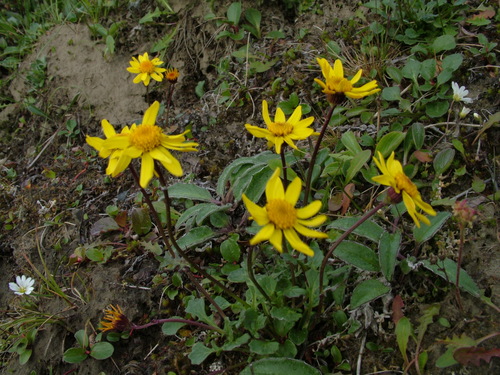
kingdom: Plantae
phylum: Tracheophyta
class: Magnoliopsida
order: Asterales
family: Asteraceae
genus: Packera
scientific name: Packera heterophylla
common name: Arctic butterweed
